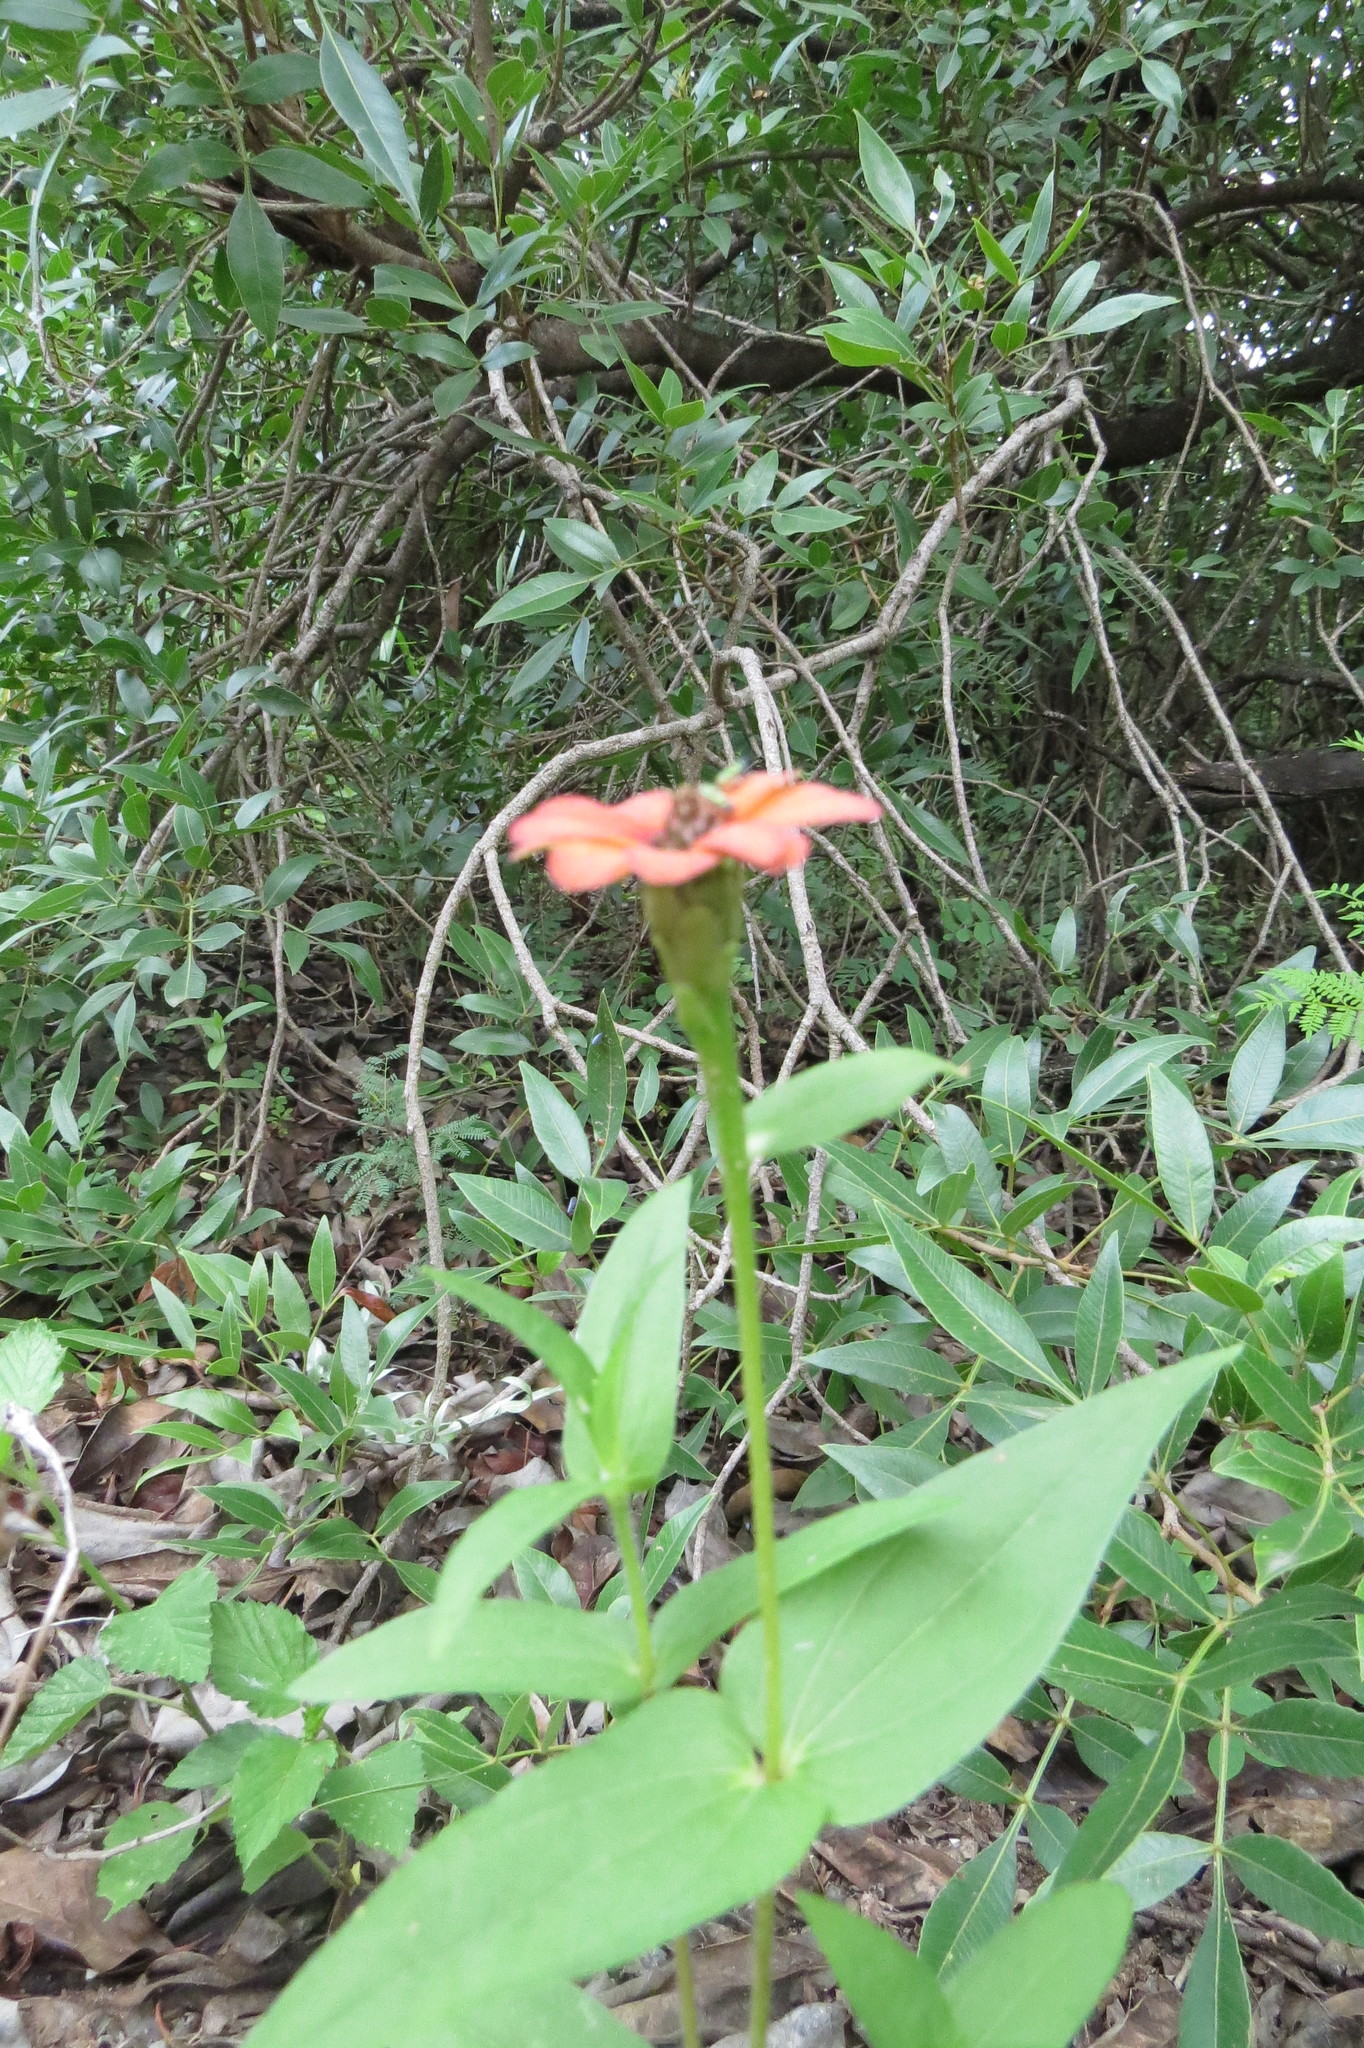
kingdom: Plantae
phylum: Tracheophyta
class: Magnoliopsida
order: Asterales
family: Asteraceae
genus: Zinnia
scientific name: Zinnia peruviana
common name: Peruvian zinnia
